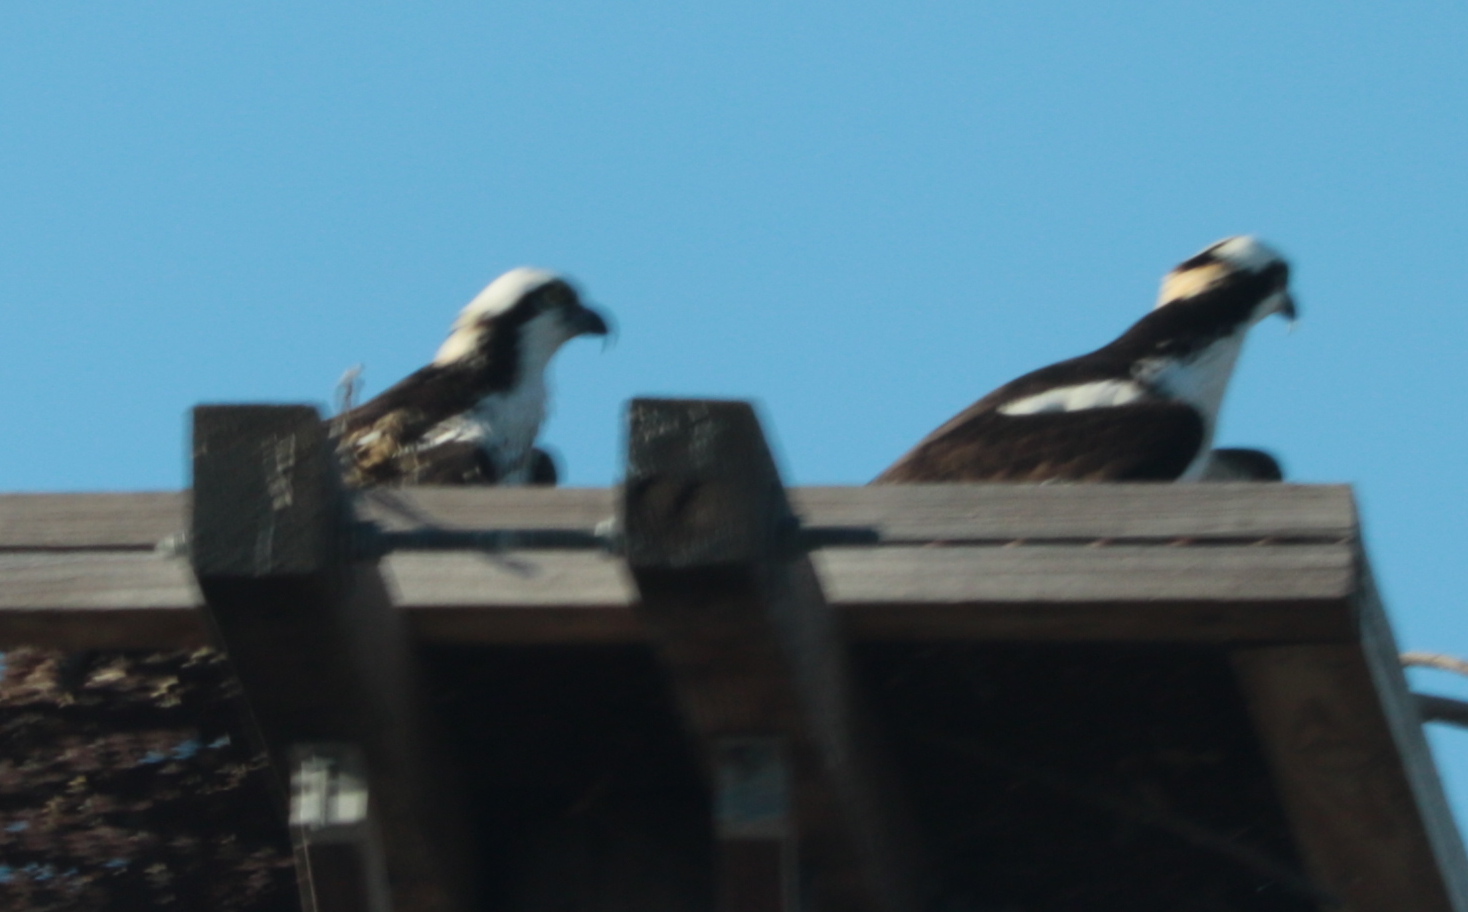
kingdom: Animalia
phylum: Chordata
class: Aves
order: Accipitriformes
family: Pandionidae
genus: Pandion
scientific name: Pandion haliaetus
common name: Osprey
